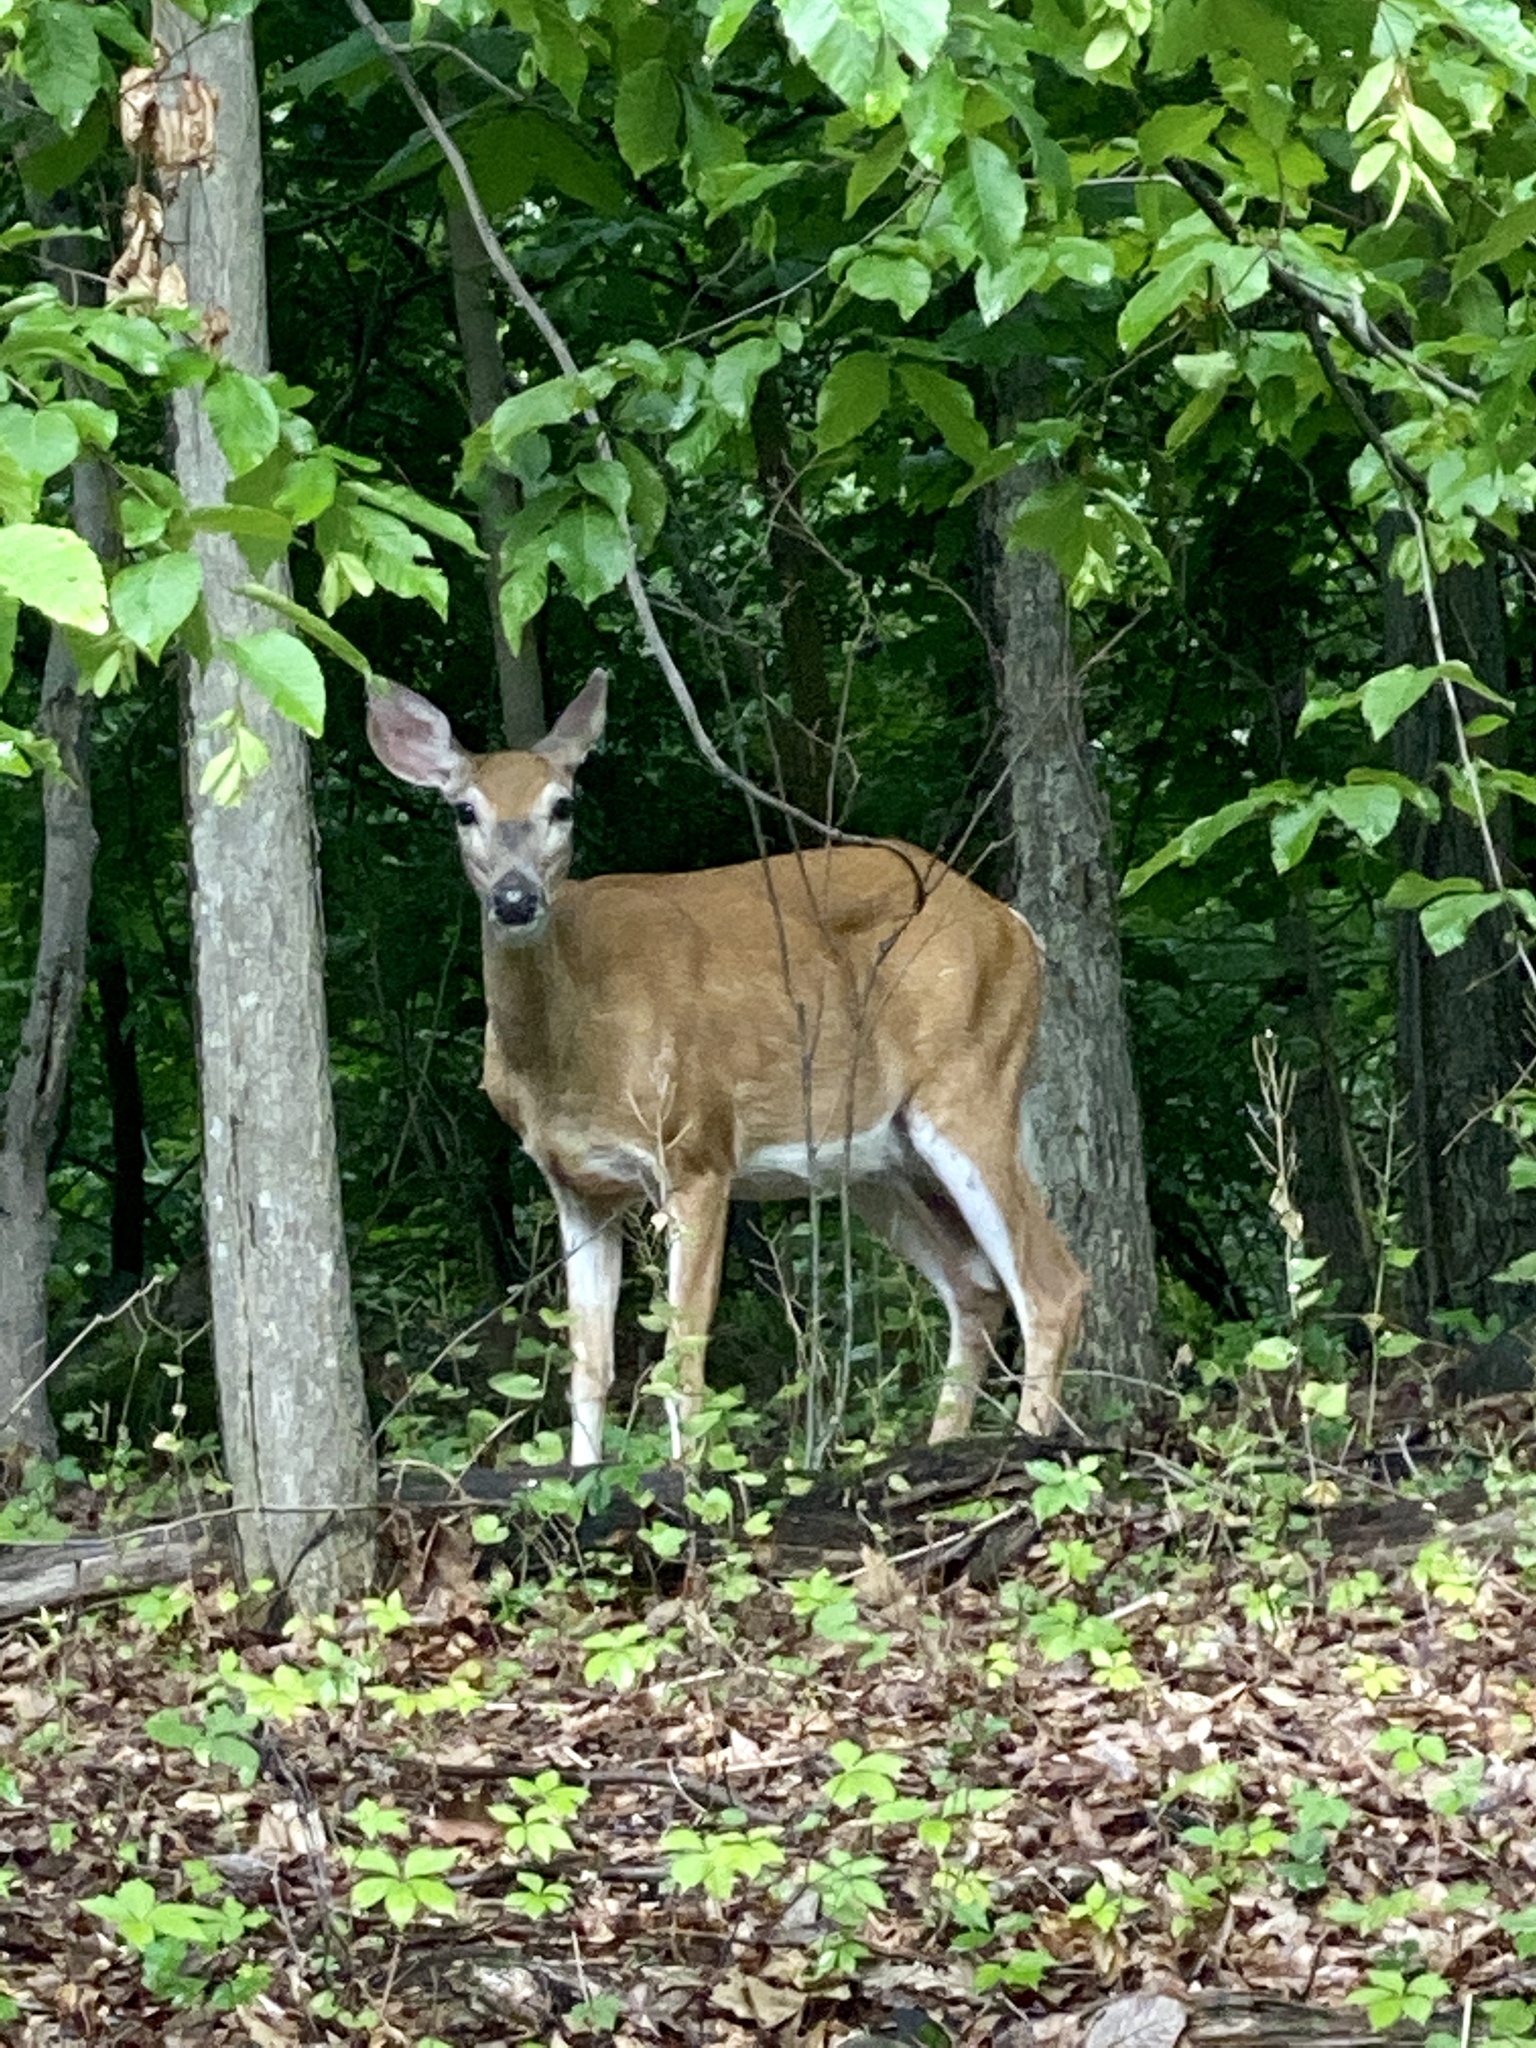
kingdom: Animalia
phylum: Chordata
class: Mammalia
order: Artiodactyla
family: Cervidae
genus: Odocoileus
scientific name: Odocoileus virginianus
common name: White-tailed deer
